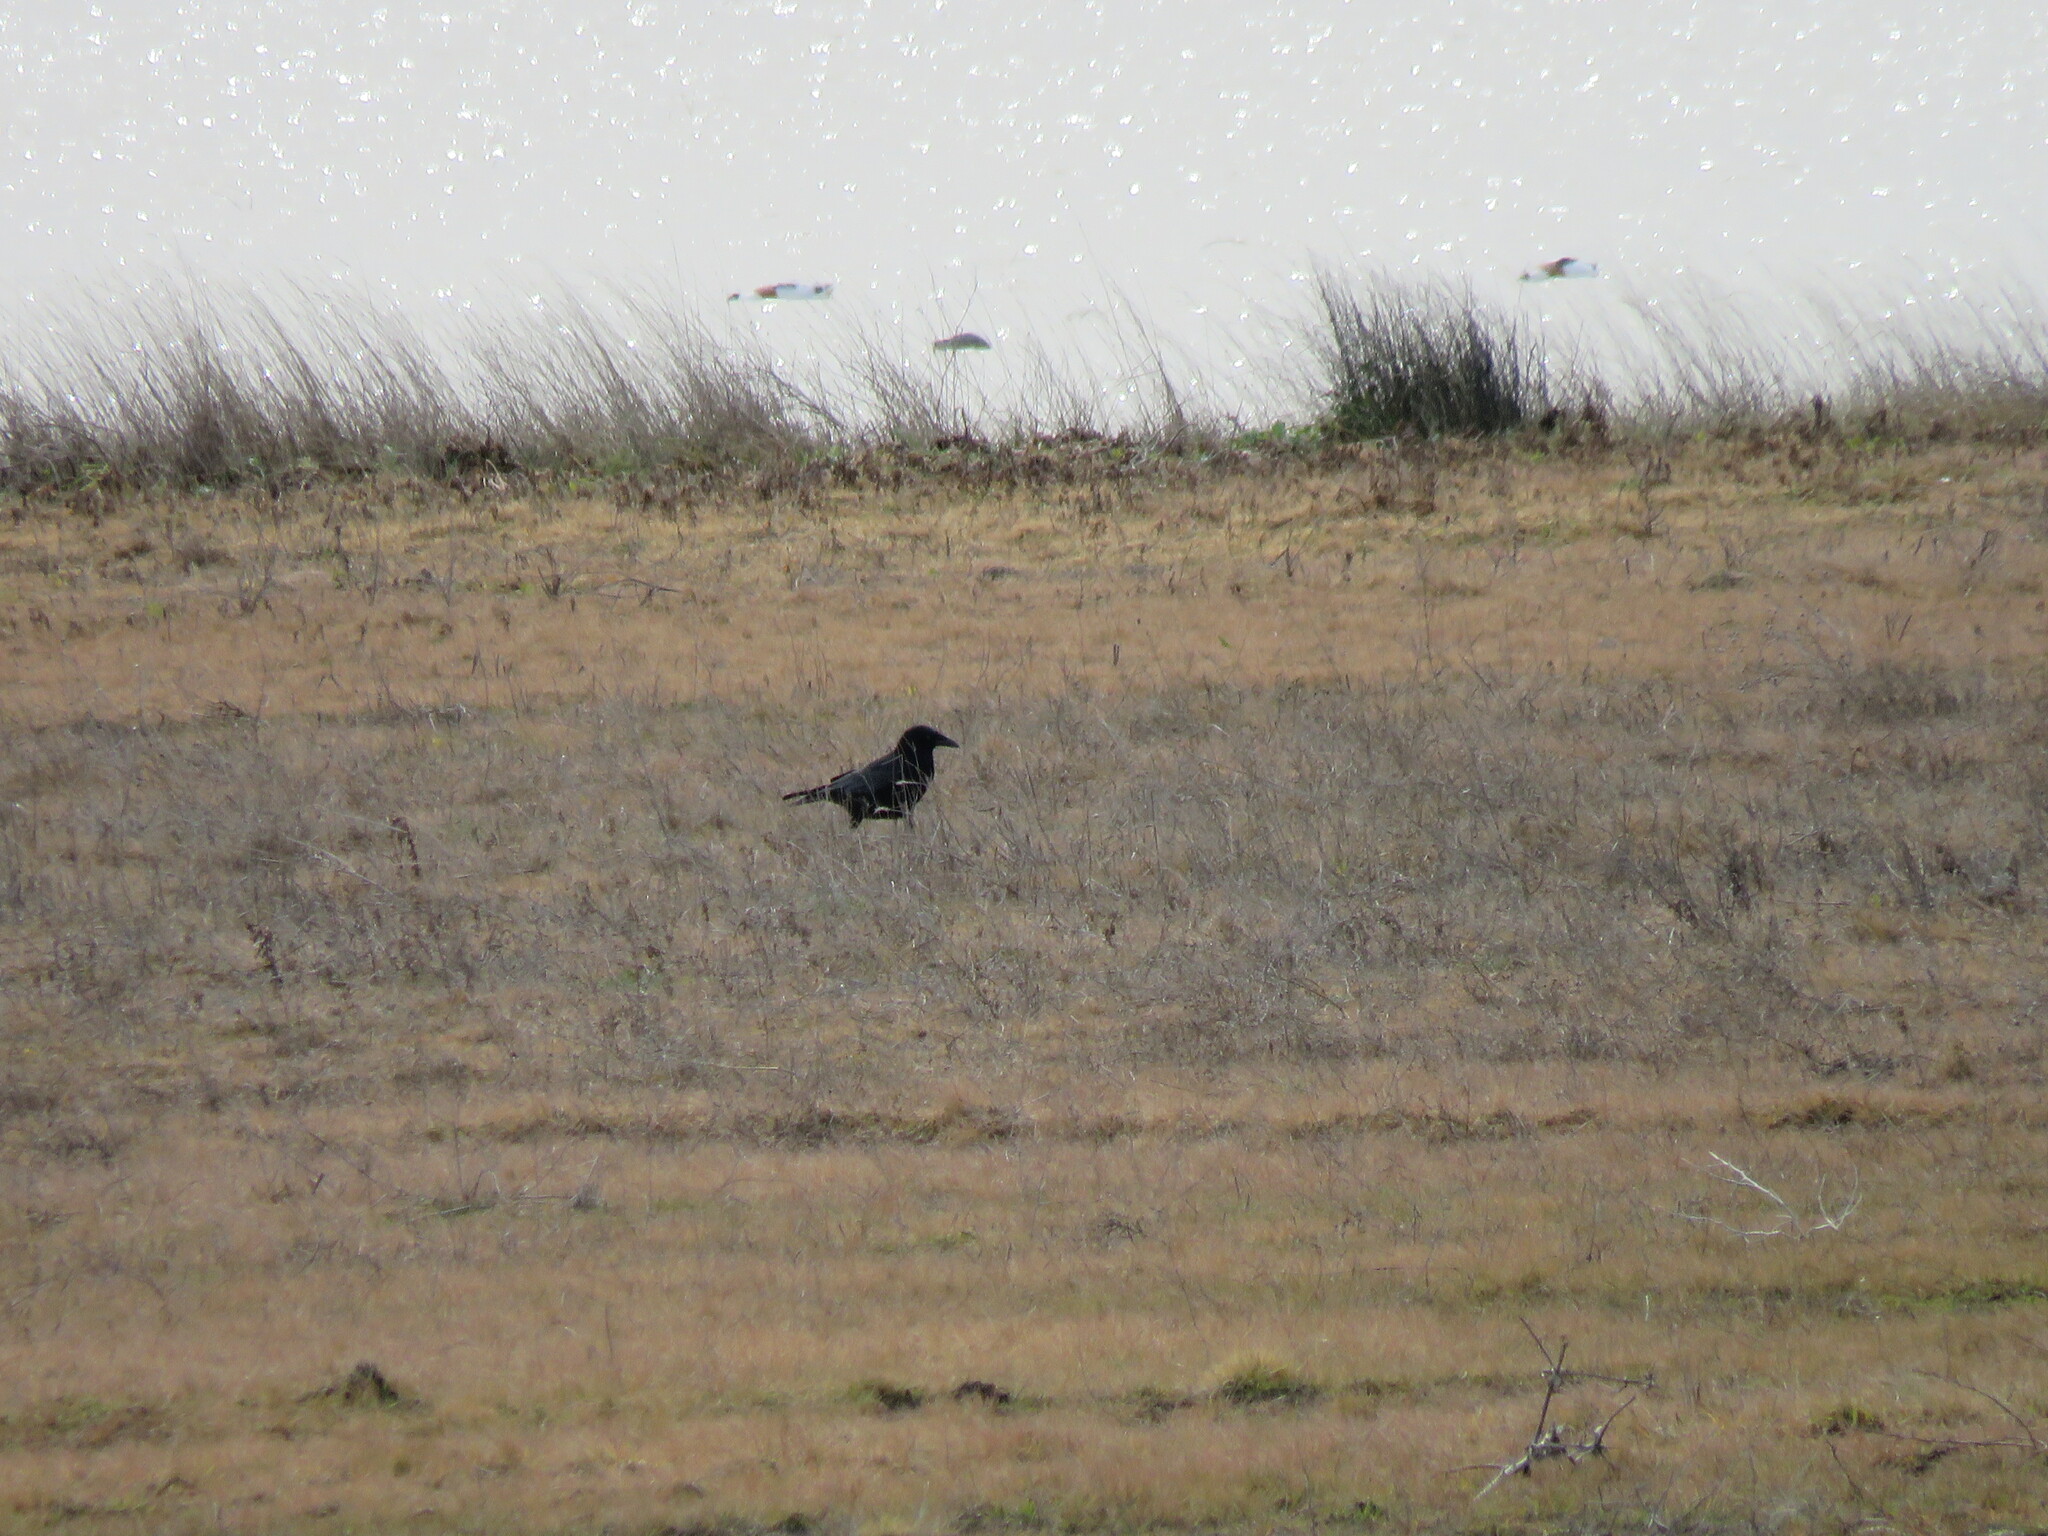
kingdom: Animalia
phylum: Chordata
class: Aves
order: Passeriformes
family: Corvidae
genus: Corvus
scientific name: Corvus corone
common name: Carrion crow
